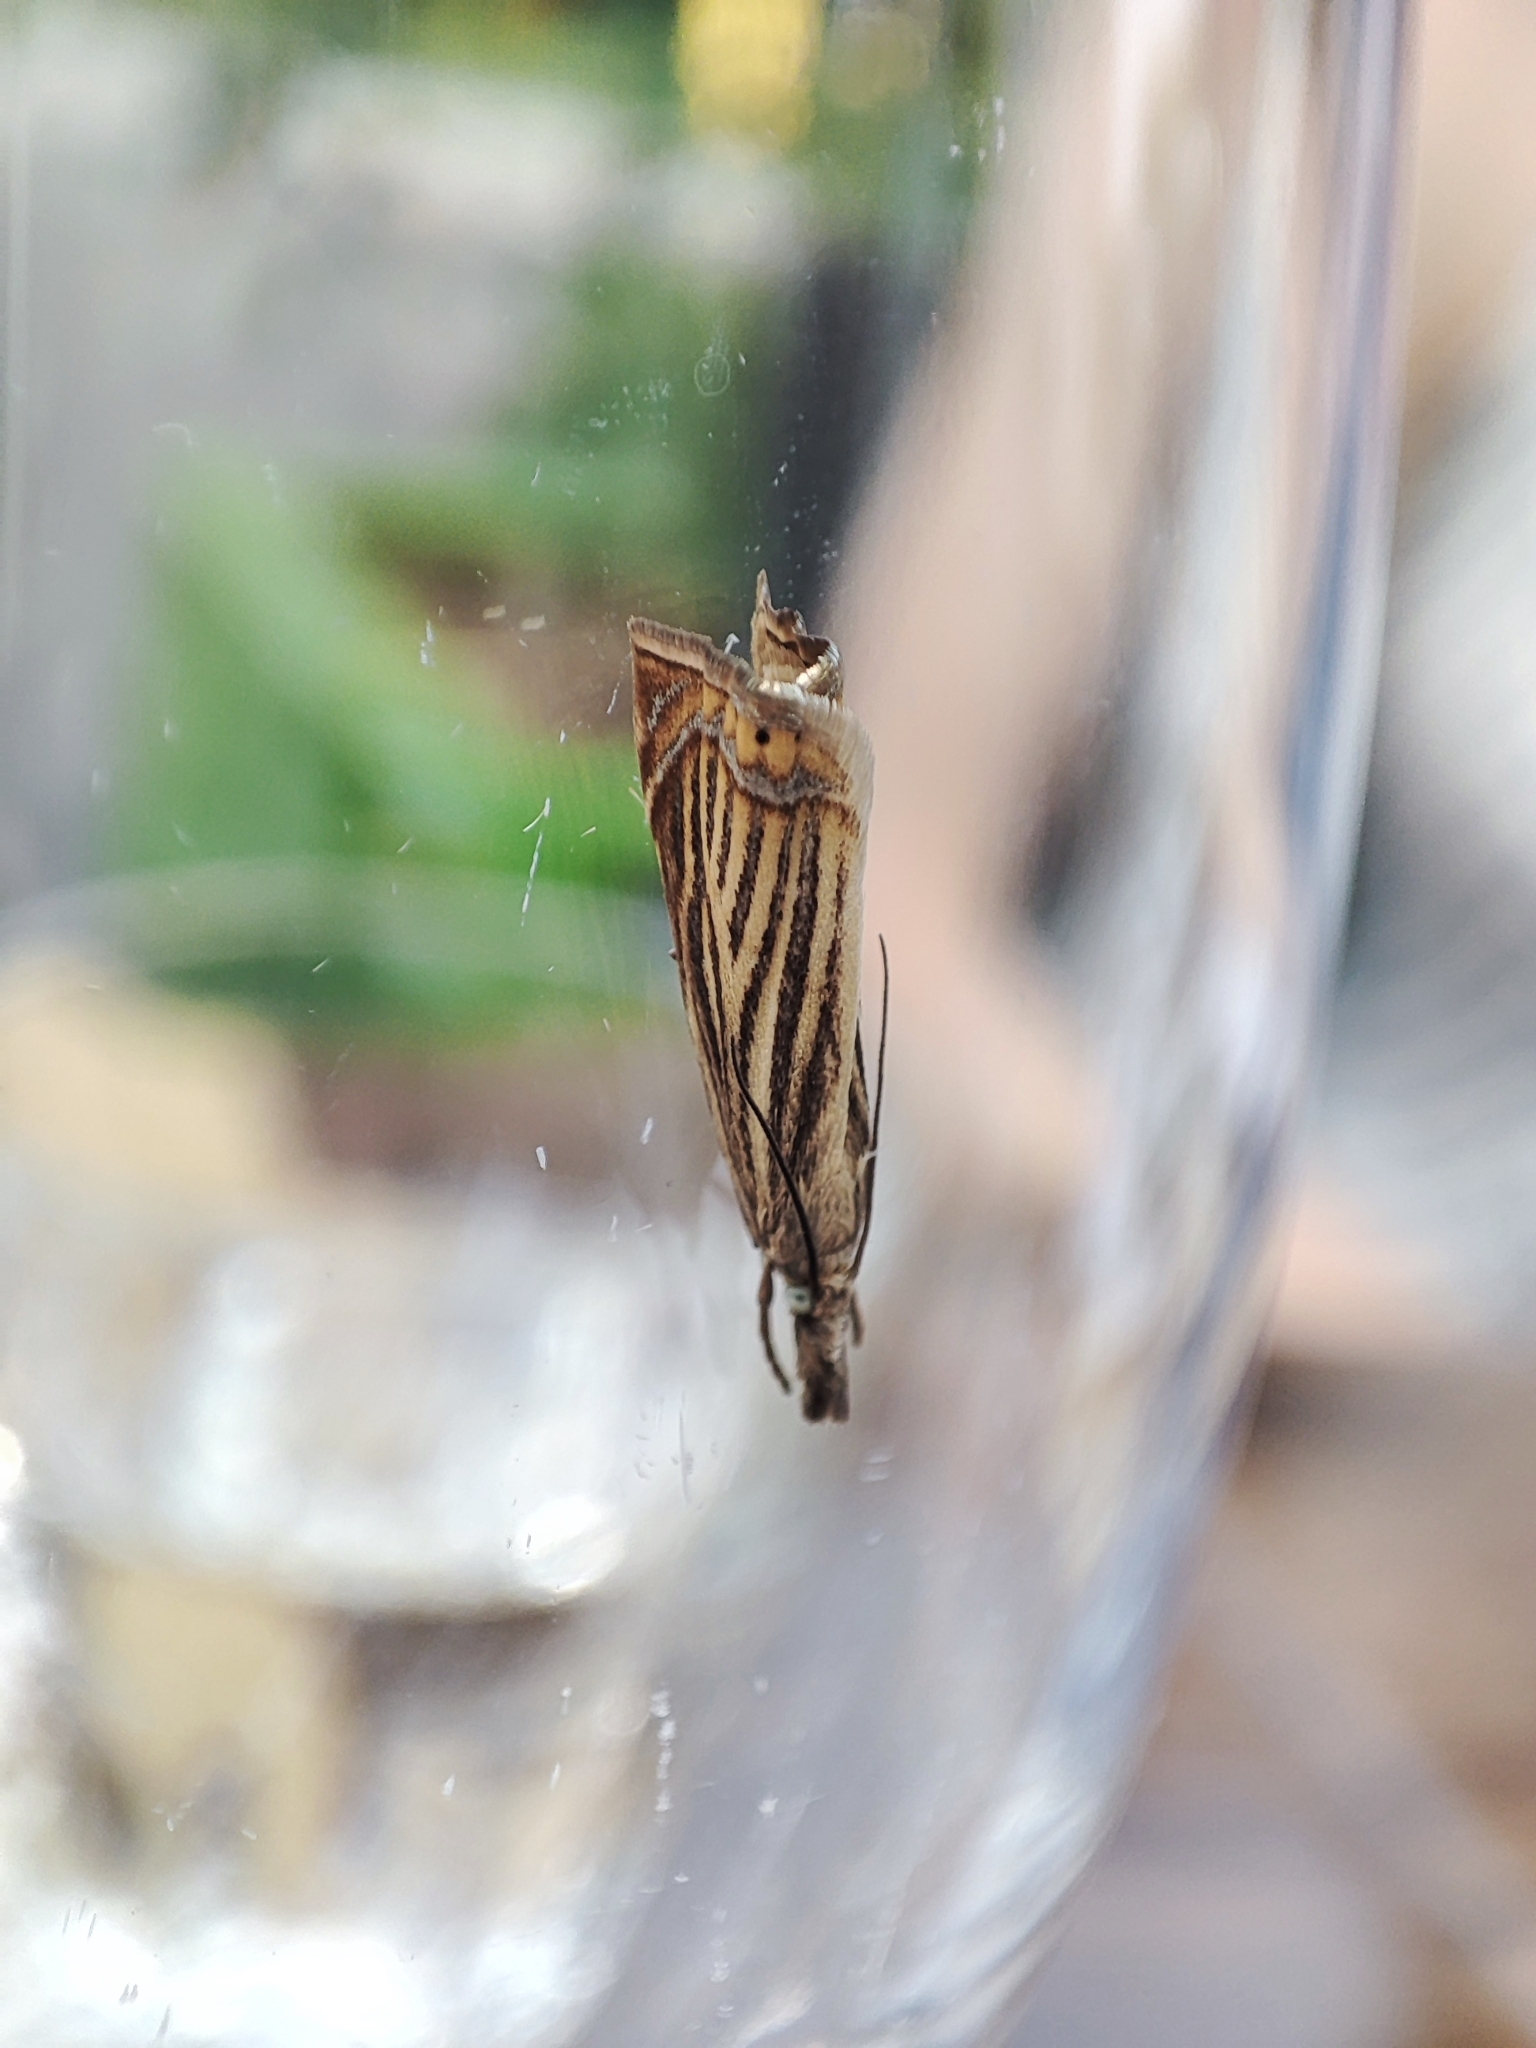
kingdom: Animalia
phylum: Arthropoda
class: Insecta
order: Lepidoptera
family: Crambidae
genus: Chrysoteuchia
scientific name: Chrysoteuchia culmella
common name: Garden grass-veneer
